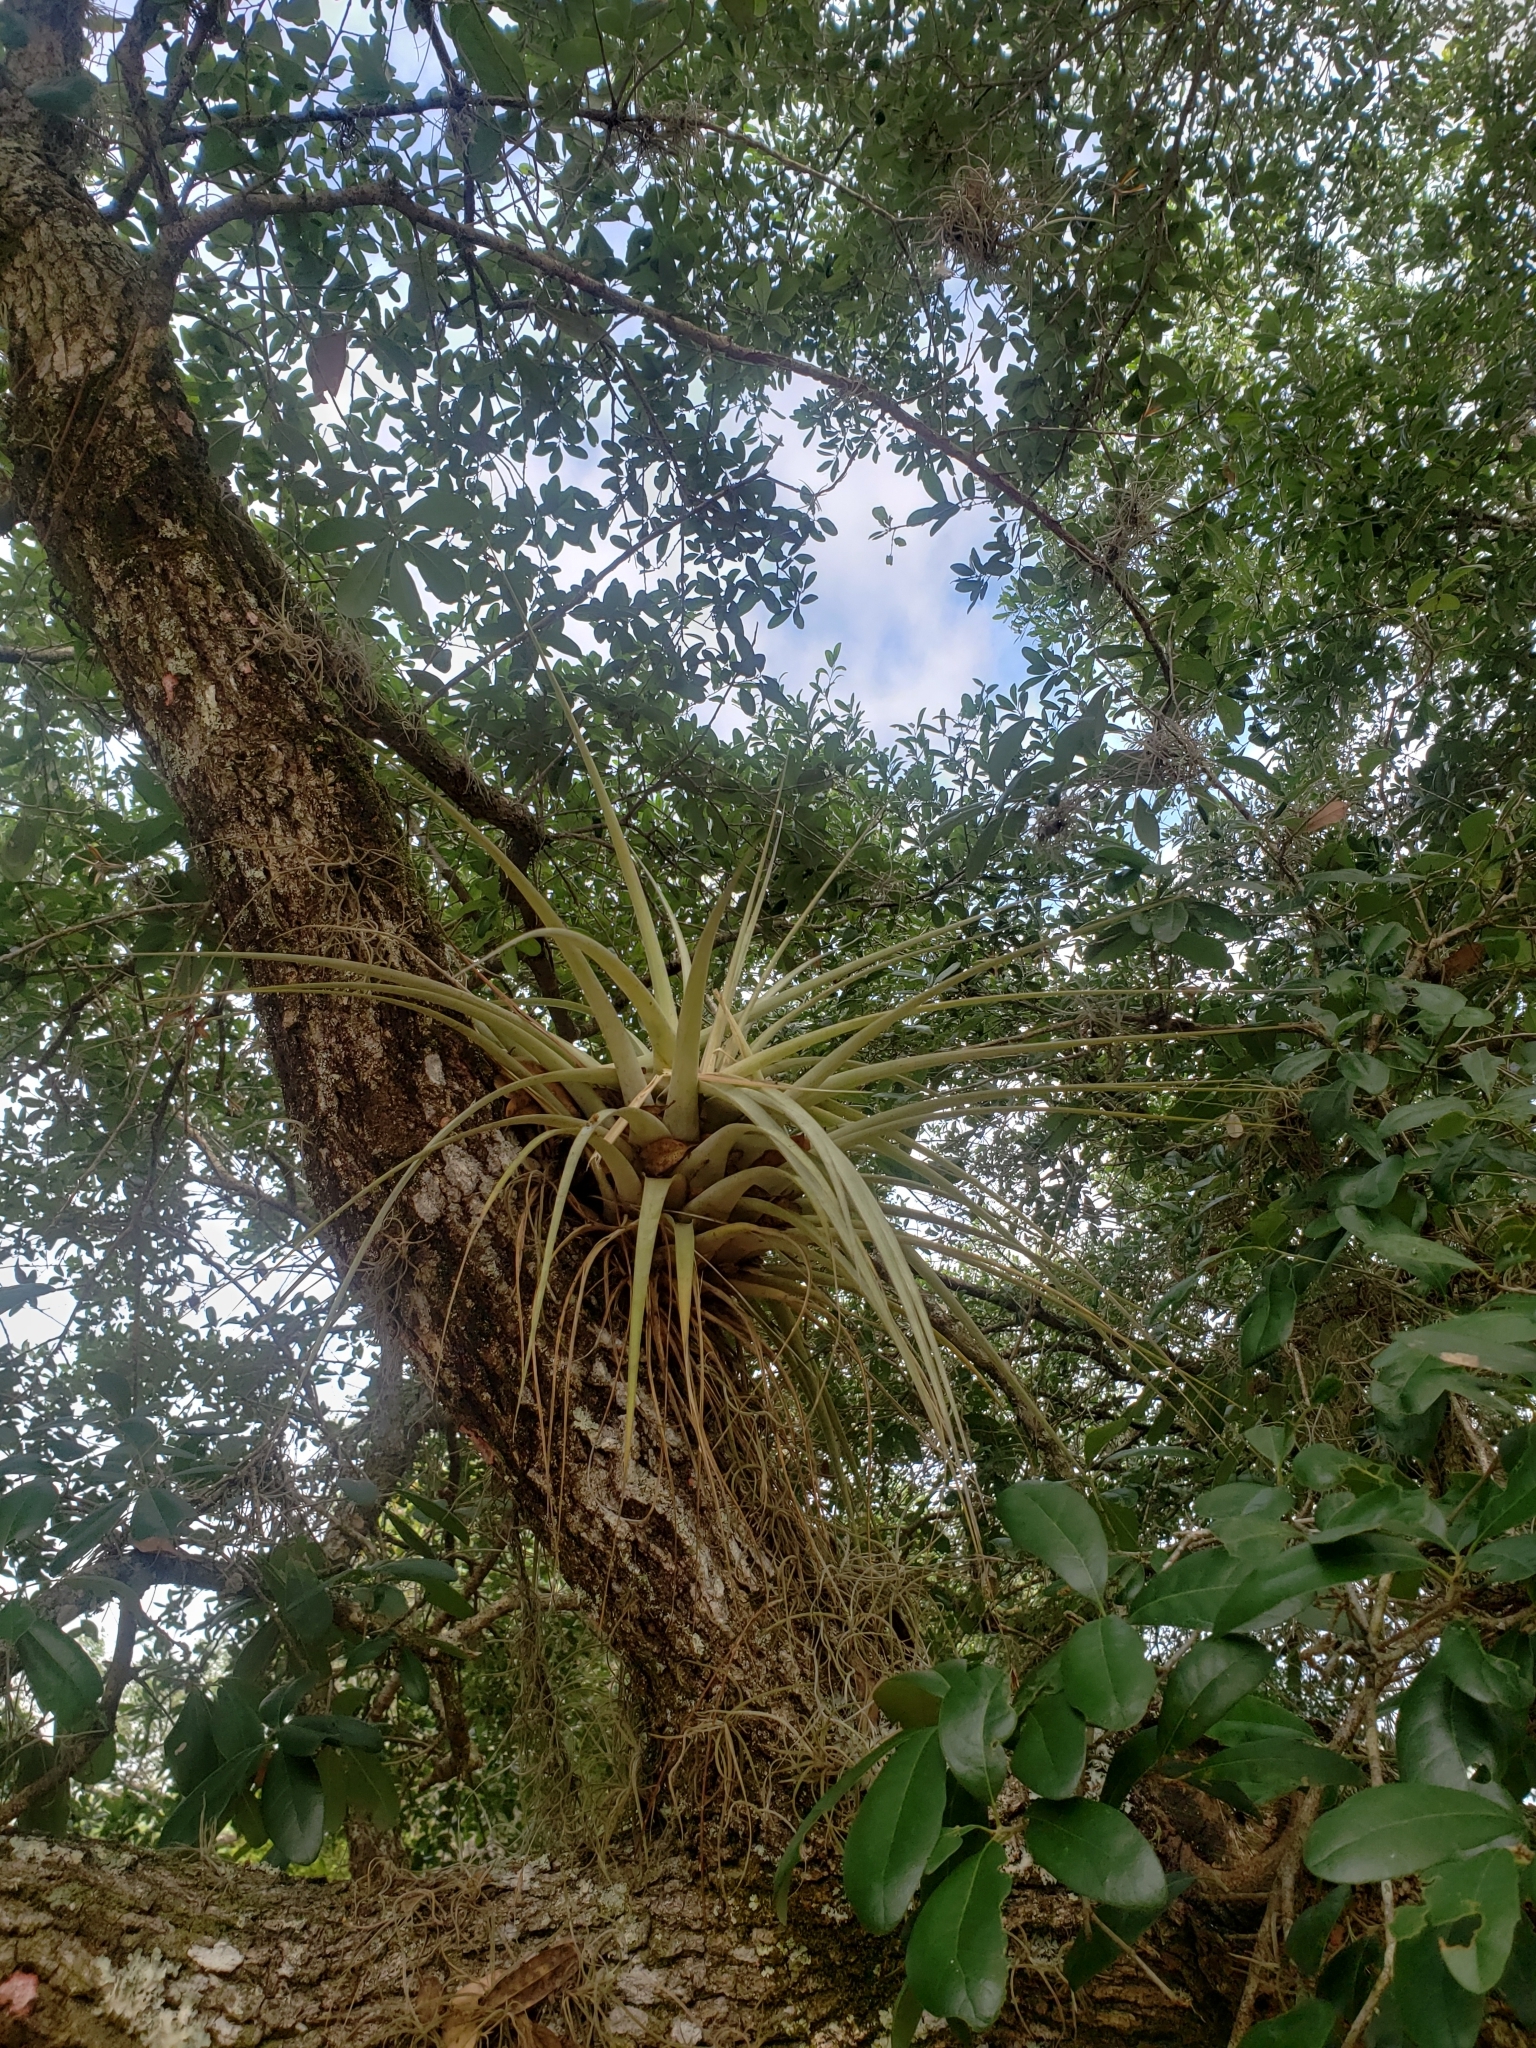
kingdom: Plantae
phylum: Tracheophyta
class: Liliopsida
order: Poales
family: Bromeliaceae
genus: Tillandsia
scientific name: Tillandsia utriculata
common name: Wild pine
